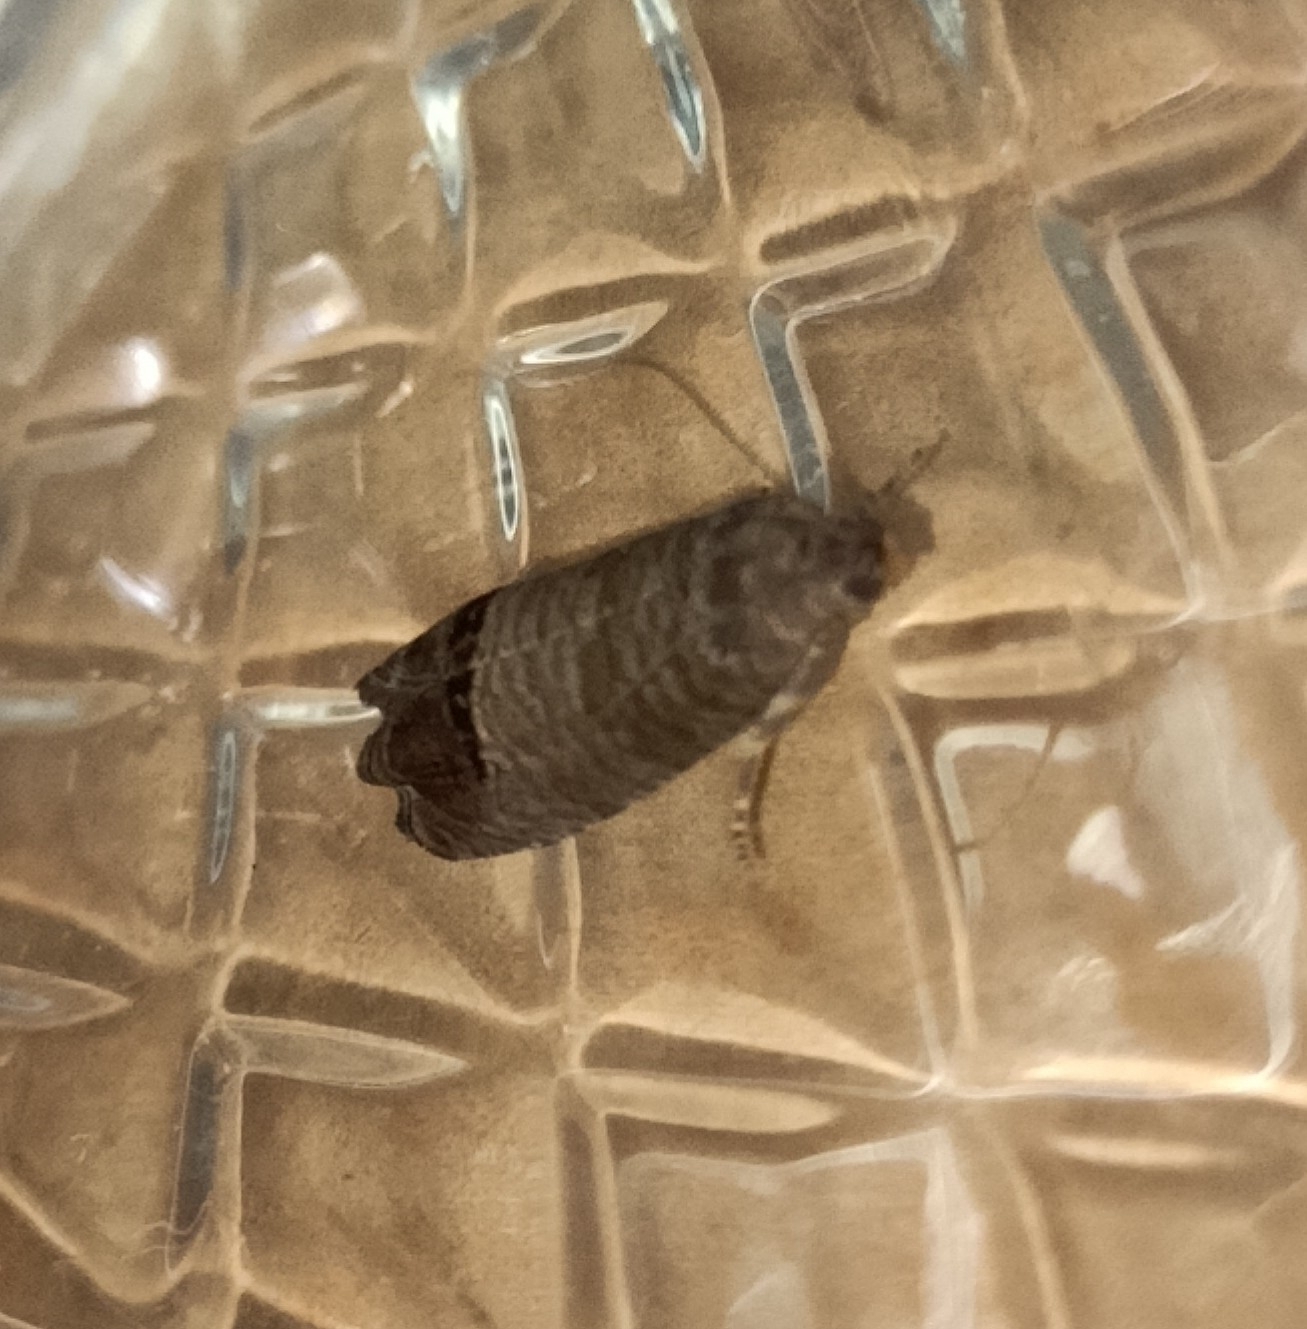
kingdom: Animalia
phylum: Arthropoda
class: Insecta
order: Lepidoptera
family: Tortricidae
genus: Cydia
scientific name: Cydia pomonella
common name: Codling moth
